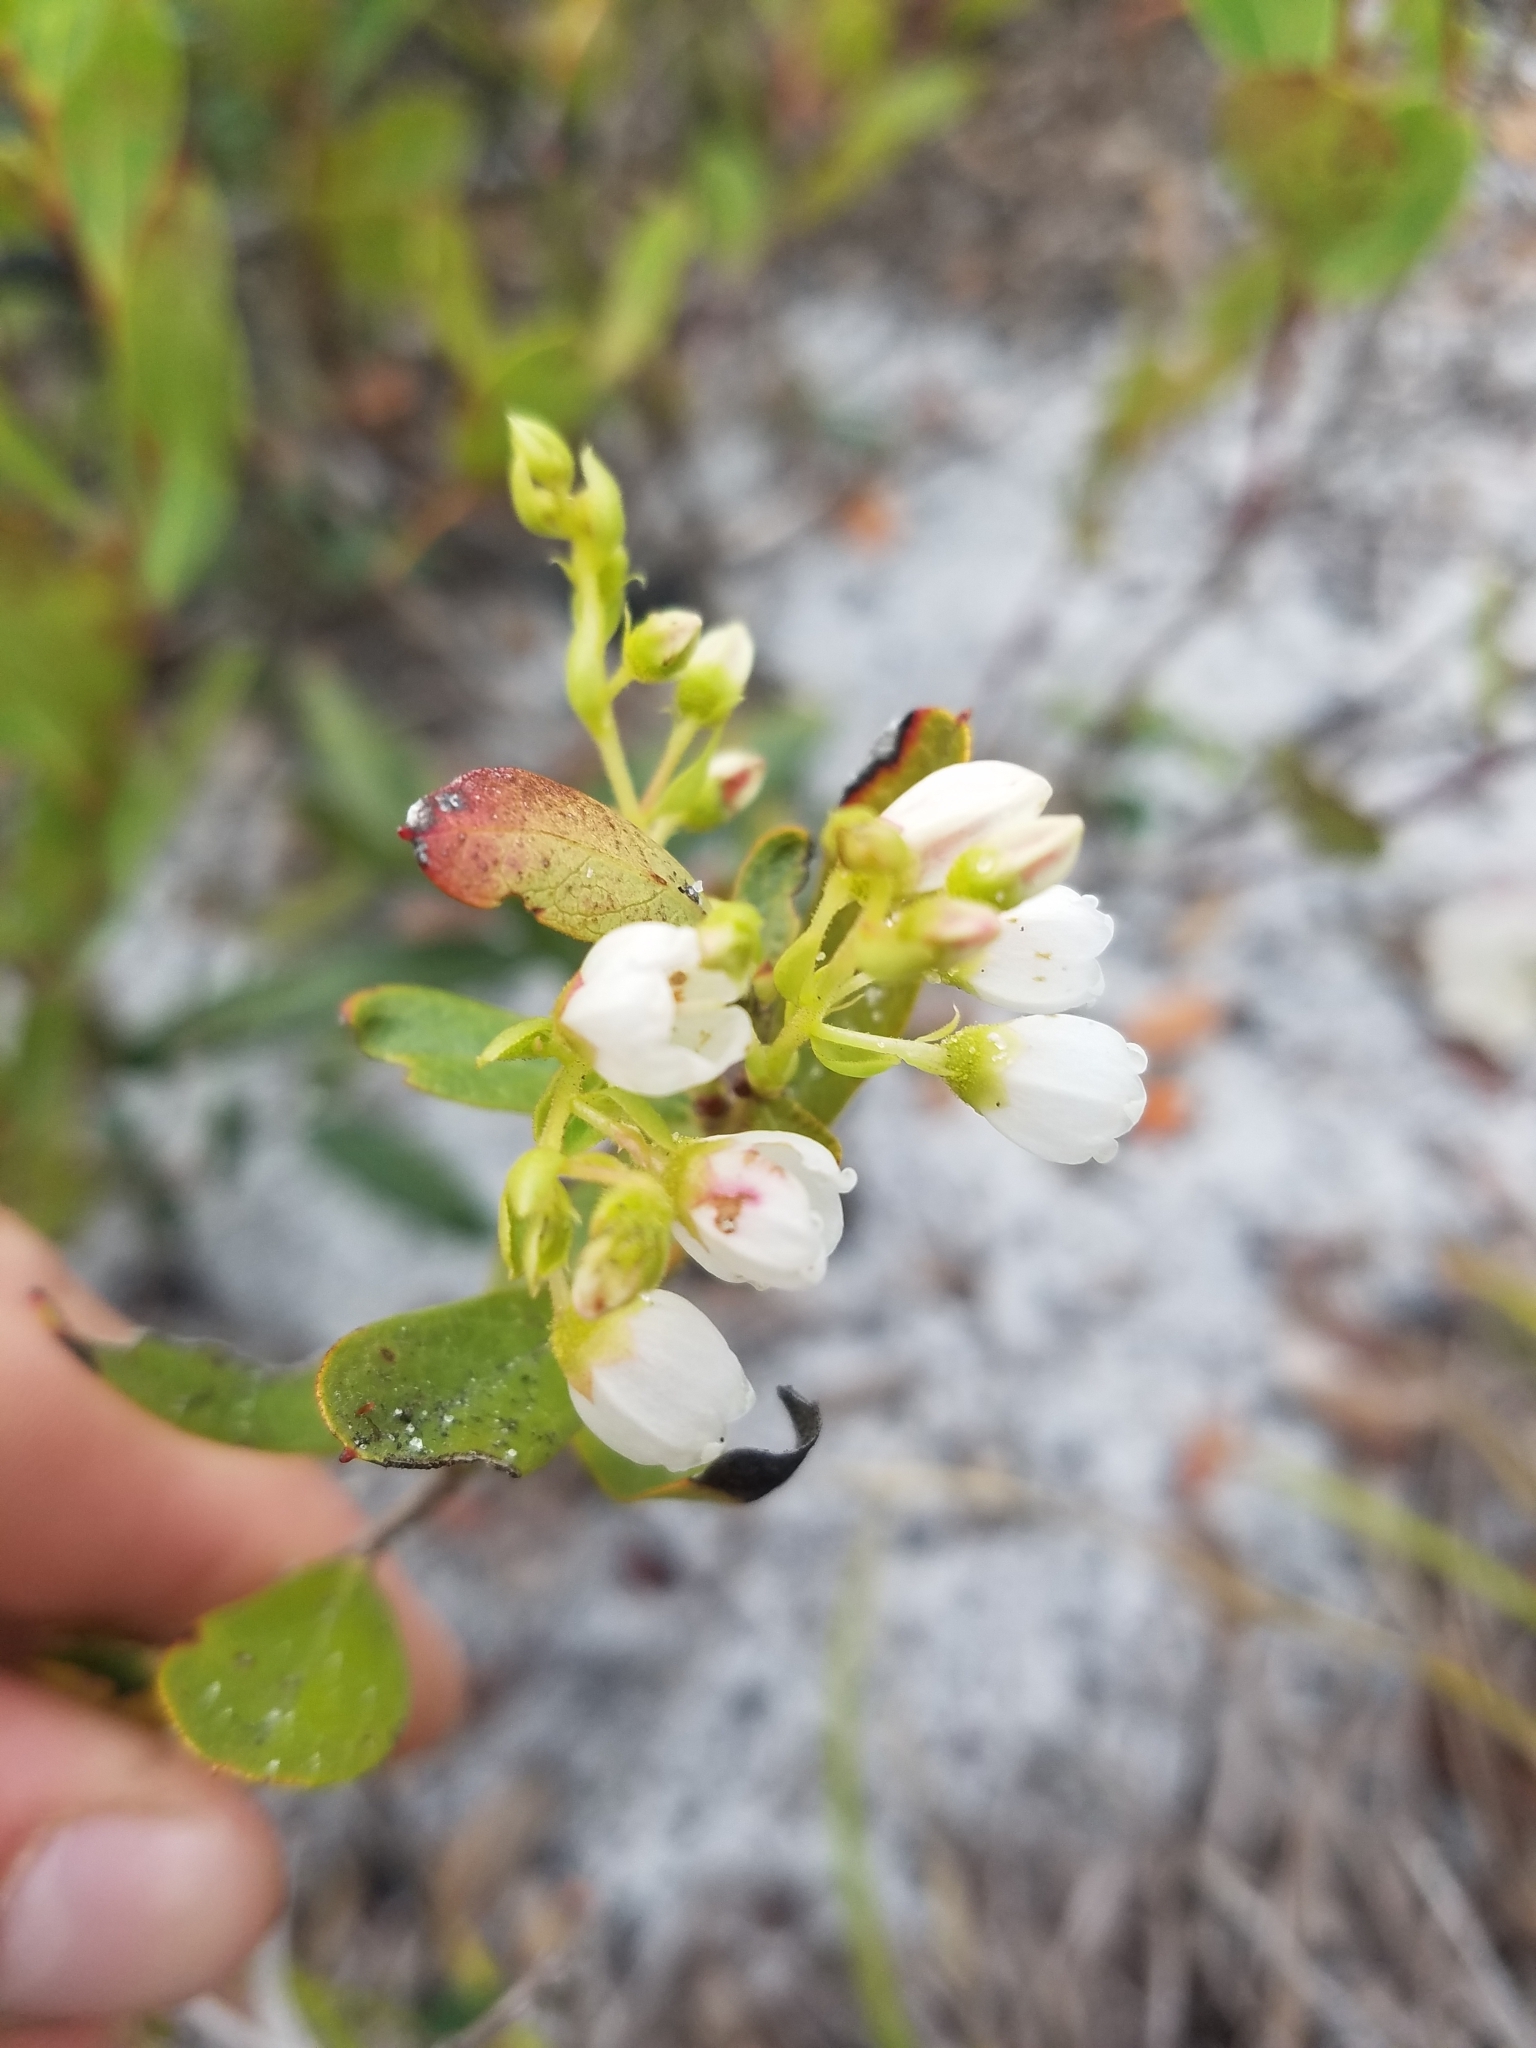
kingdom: Plantae
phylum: Tracheophyta
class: Magnoliopsida
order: Ericales
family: Ericaceae
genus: Gaylussacia
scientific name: Gaylussacia dumosa
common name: Dwarf huckleberry
